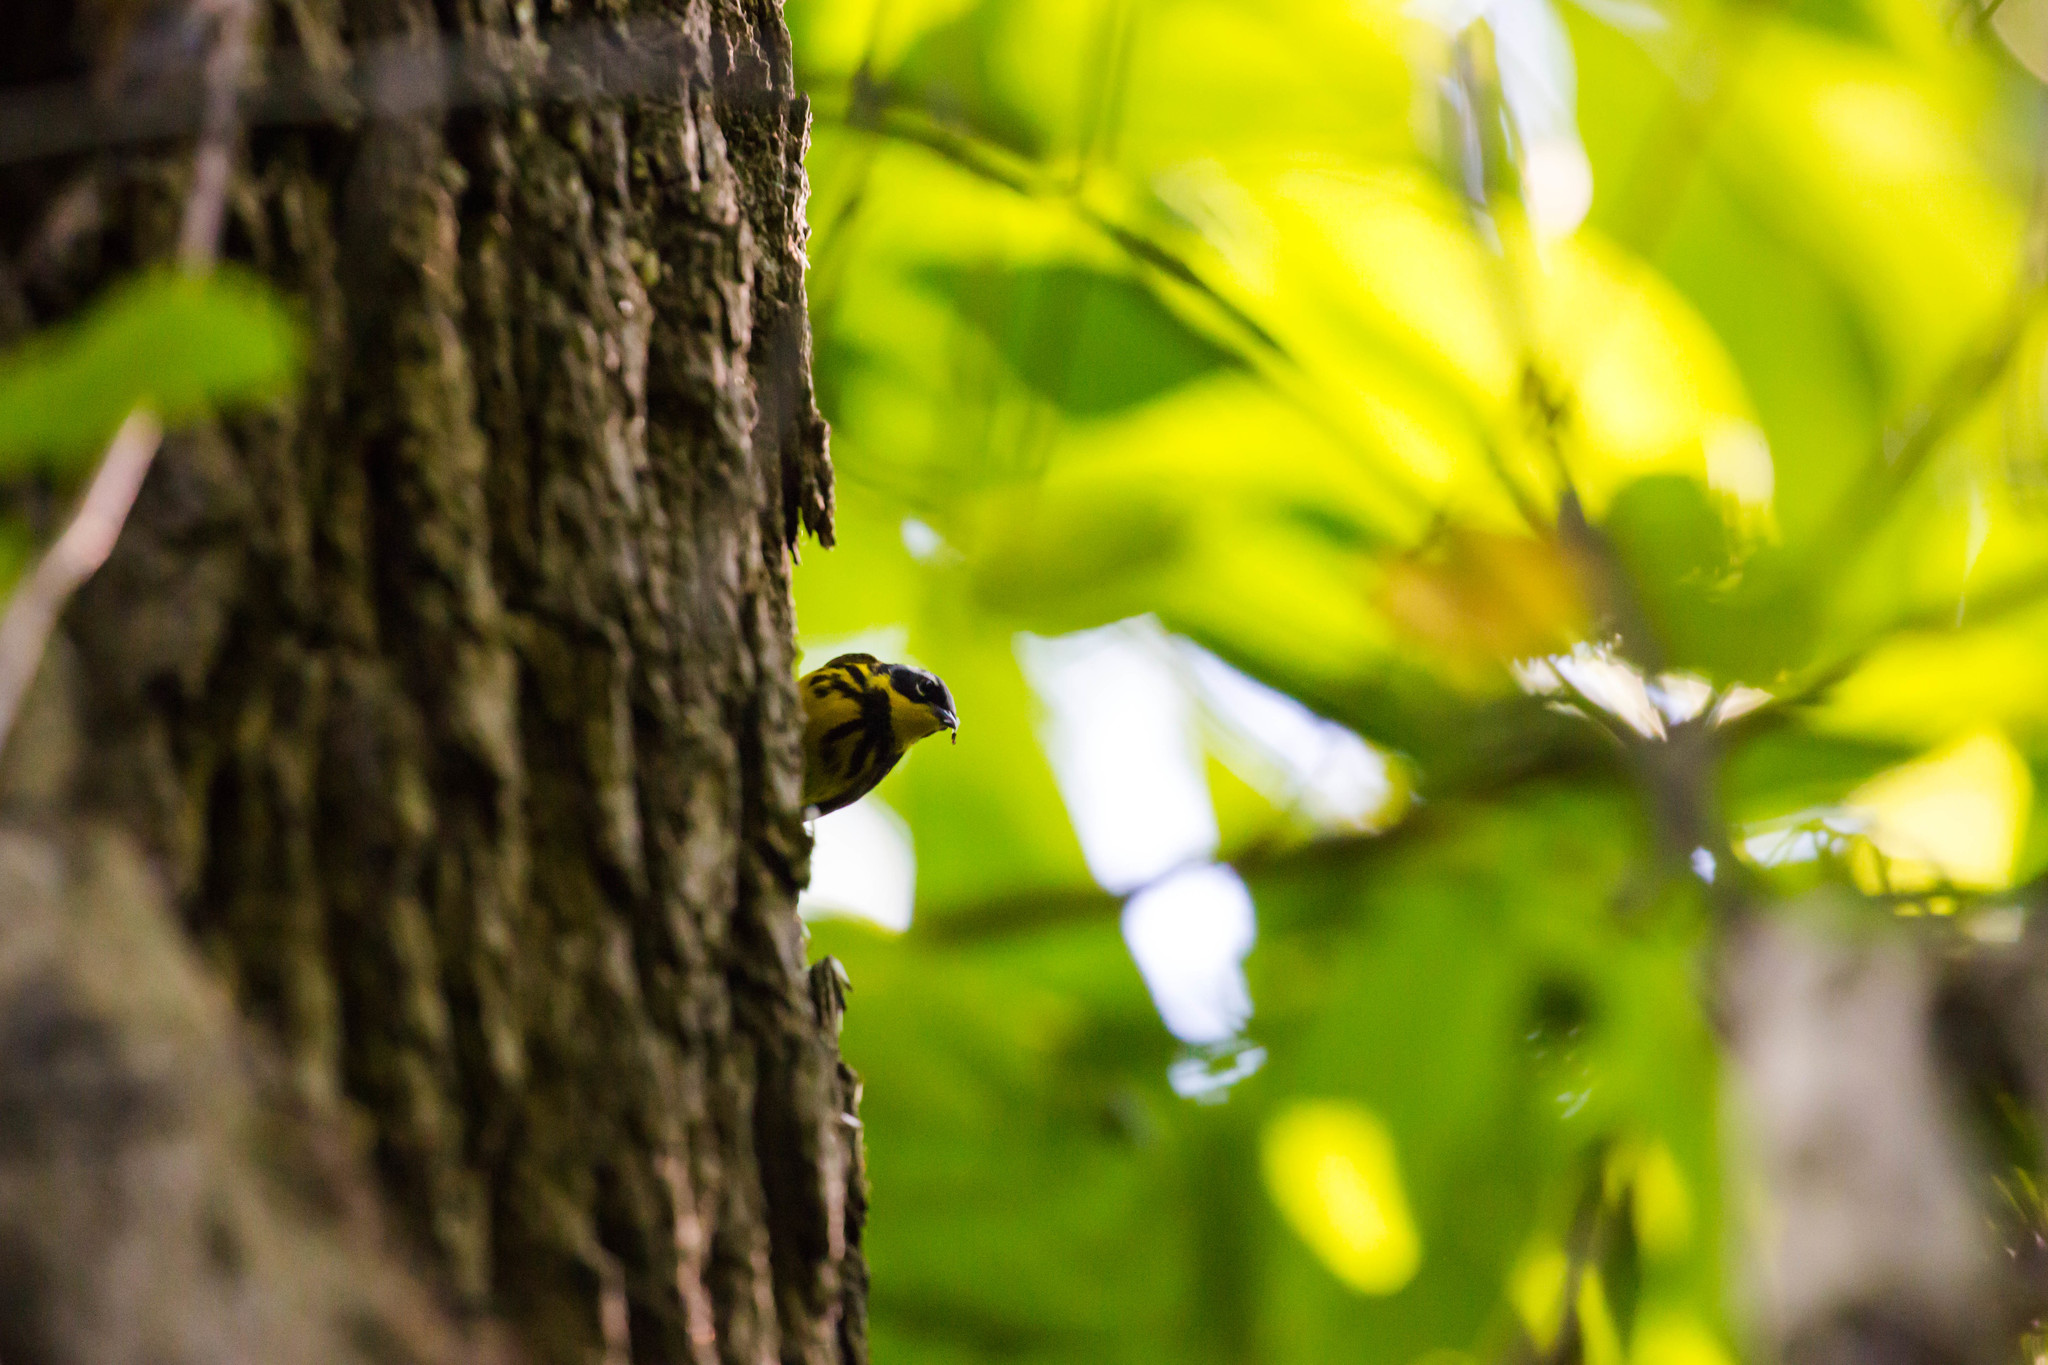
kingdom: Animalia
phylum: Chordata
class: Aves
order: Passeriformes
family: Parulidae
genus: Setophaga
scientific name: Setophaga magnolia
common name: Magnolia warbler
